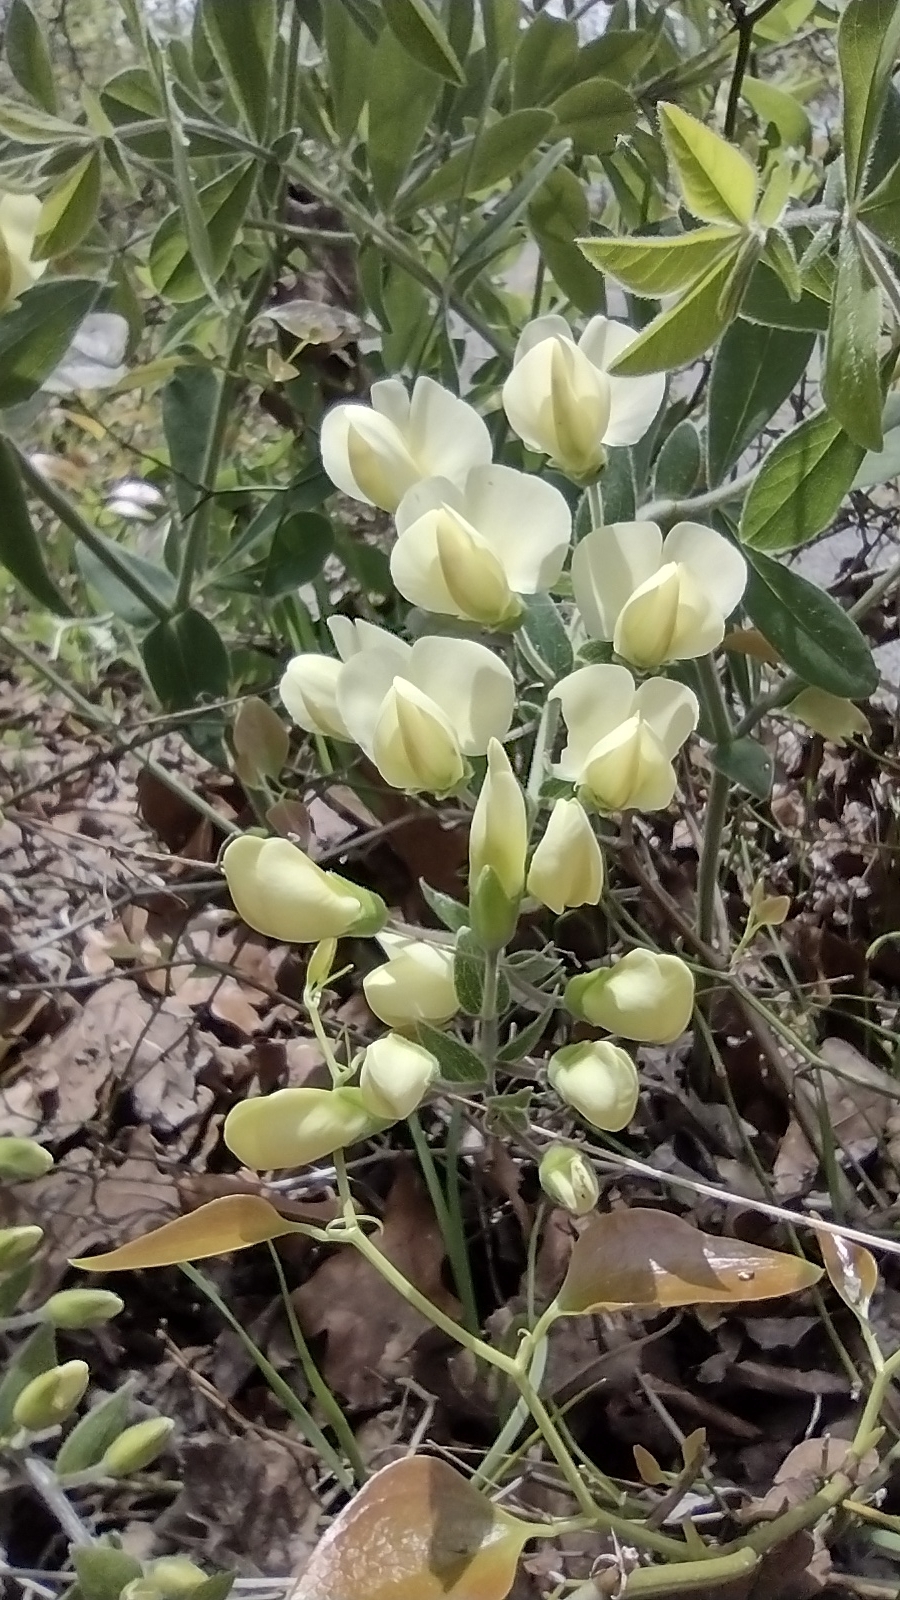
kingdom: Plantae
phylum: Tracheophyta
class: Magnoliopsida
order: Fabales
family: Fabaceae
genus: Baptisia
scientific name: Baptisia bracteata
